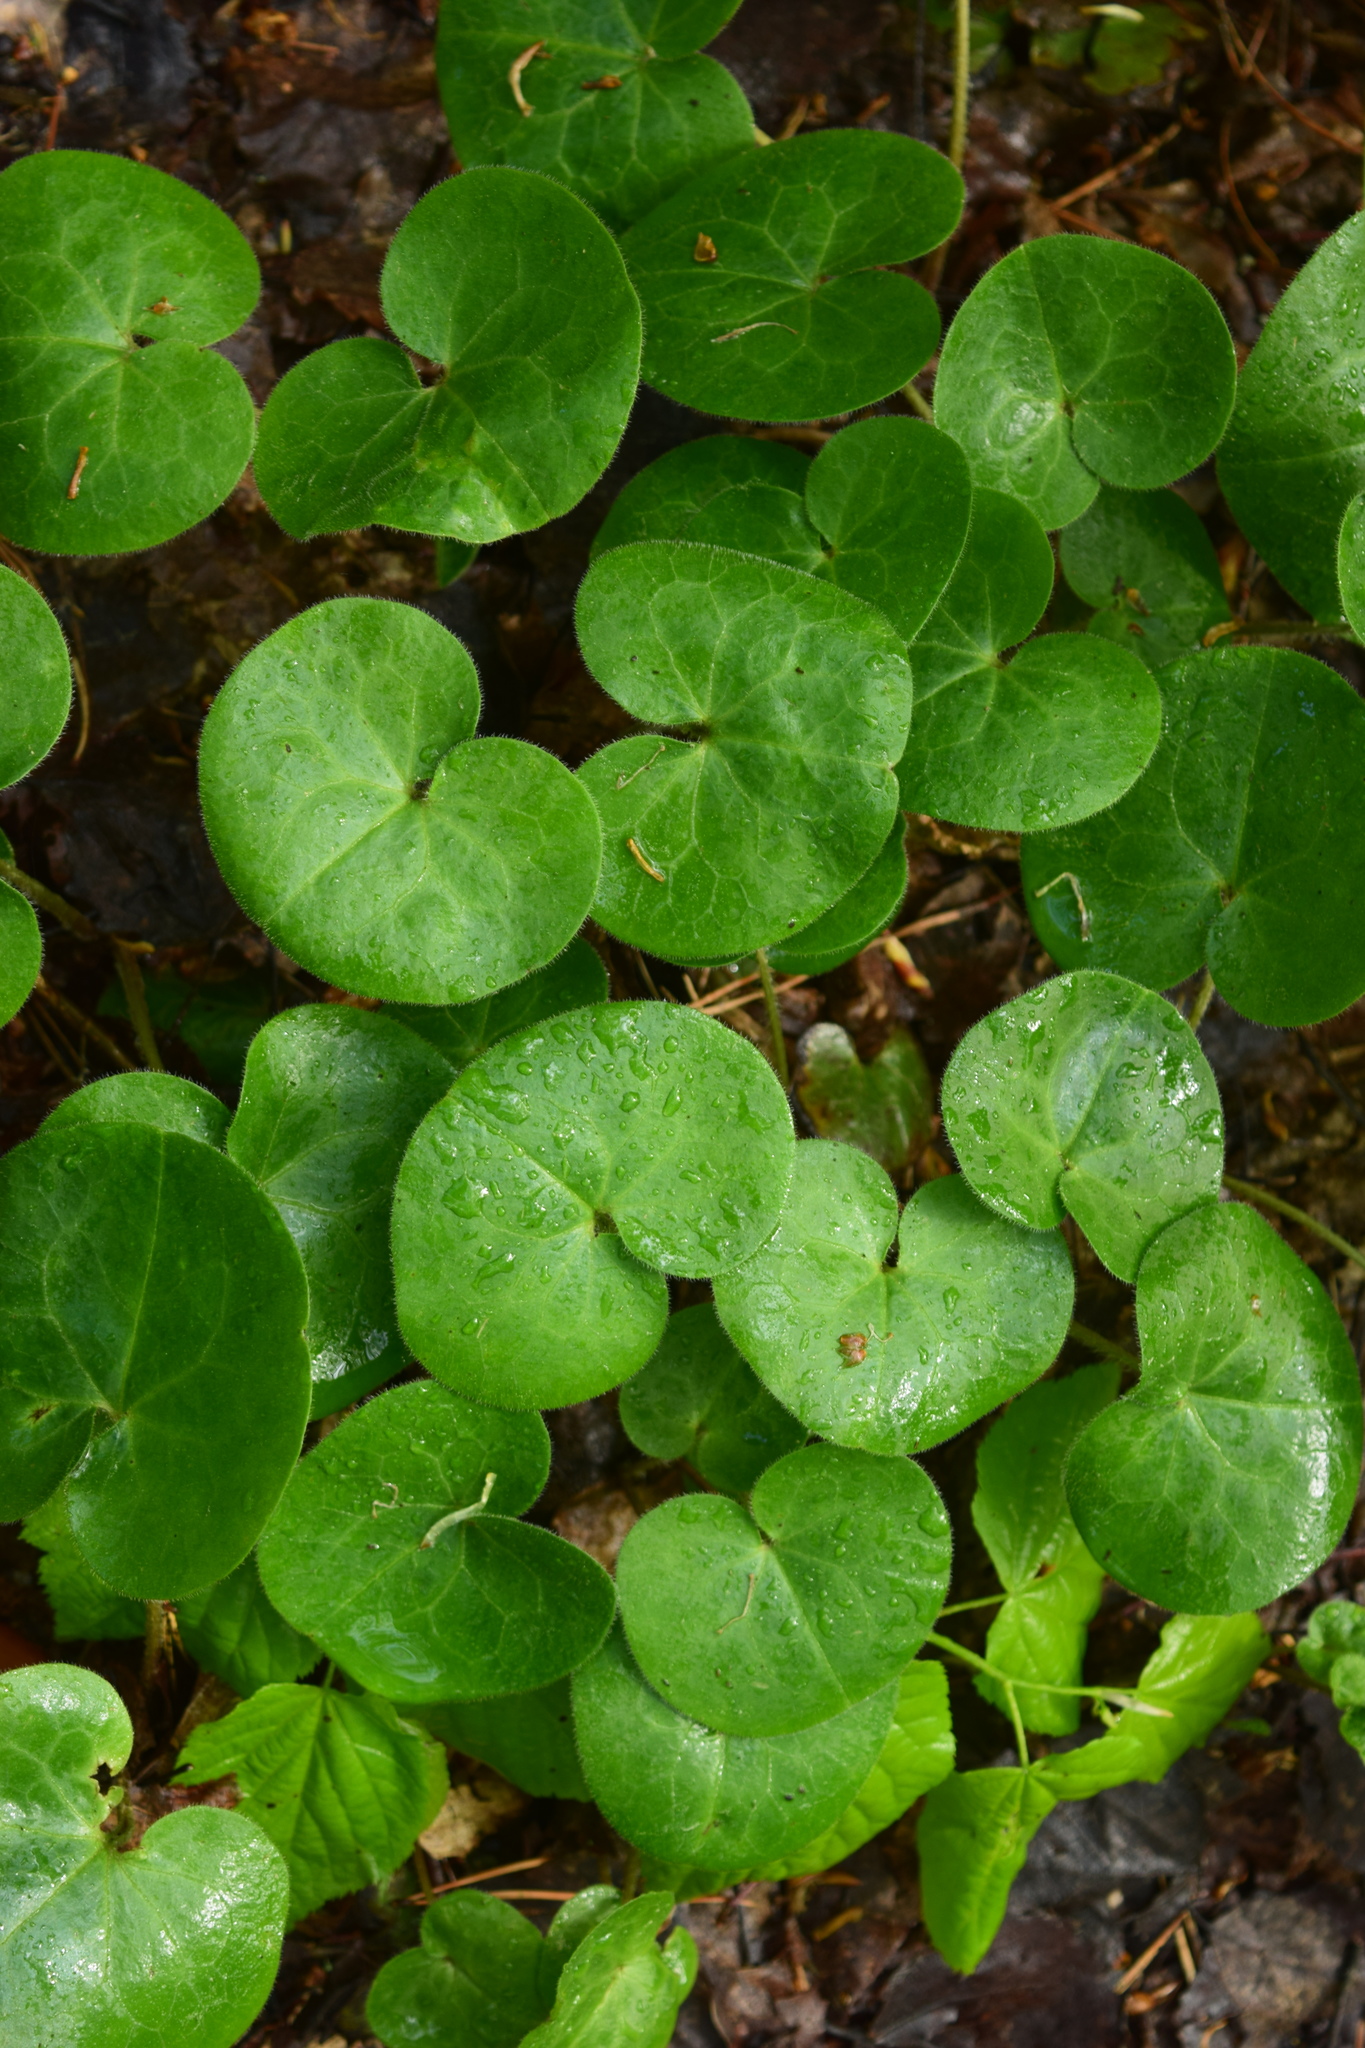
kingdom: Plantae
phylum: Tracheophyta
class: Magnoliopsida
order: Piperales
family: Aristolochiaceae
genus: Asarum
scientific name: Asarum europaeum
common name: Asarabacca
